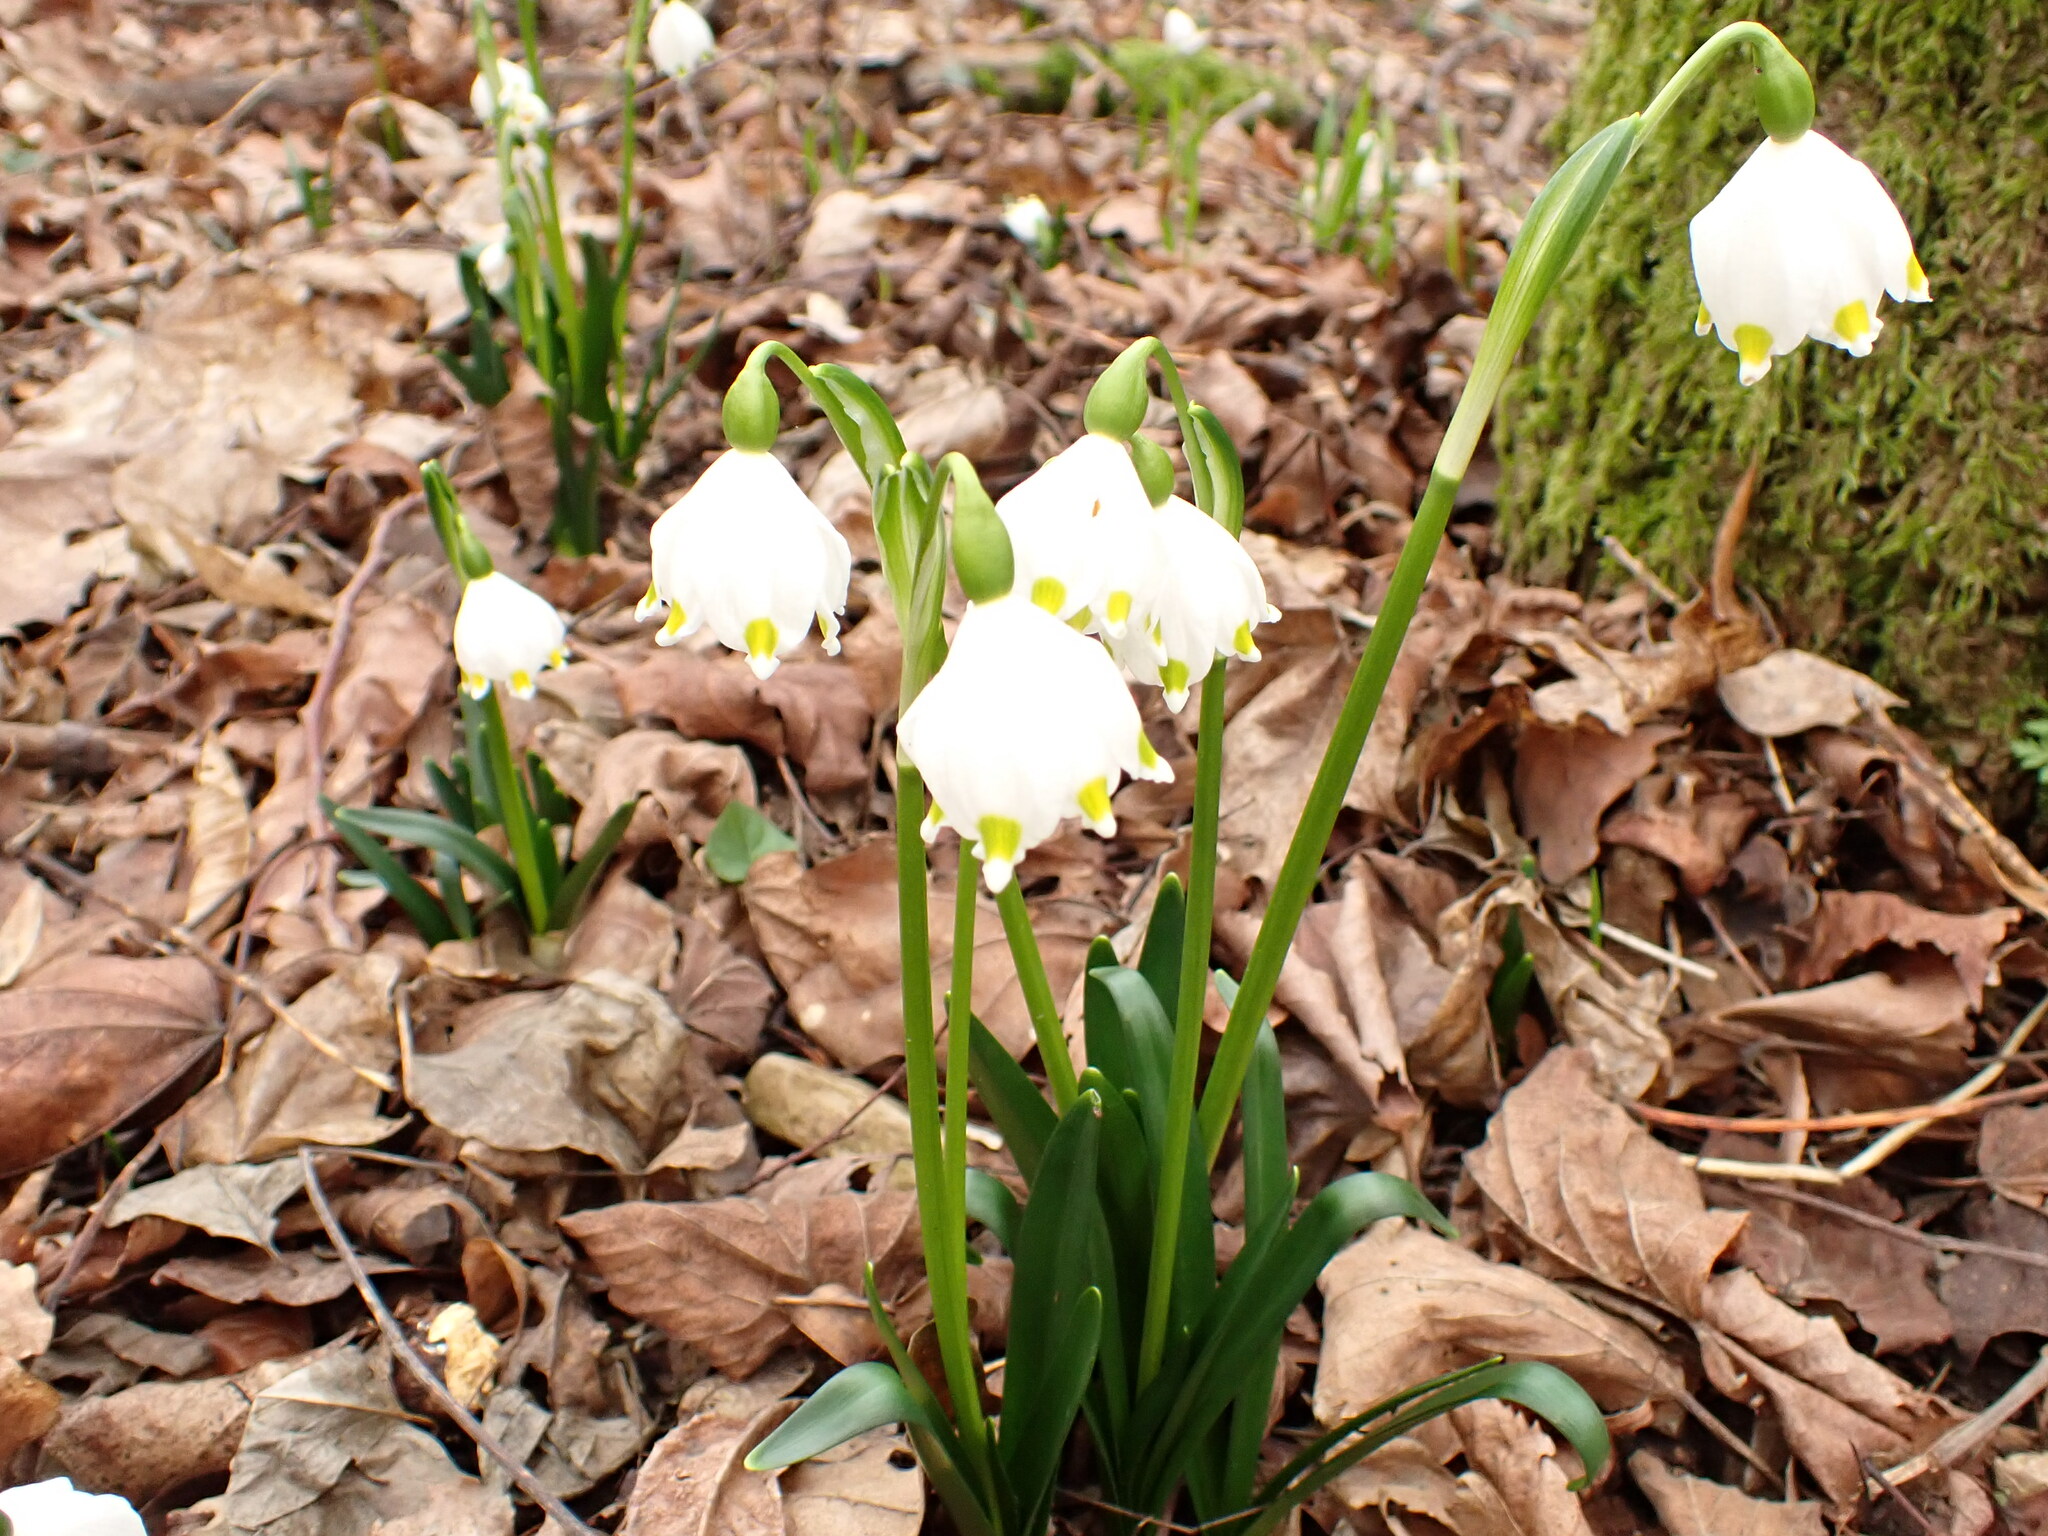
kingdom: Plantae
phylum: Tracheophyta
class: Liliopsida
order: Asparagales
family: Amaryllidaceae
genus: Leucojum
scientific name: Leucojum vernum
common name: Spring snowflake
